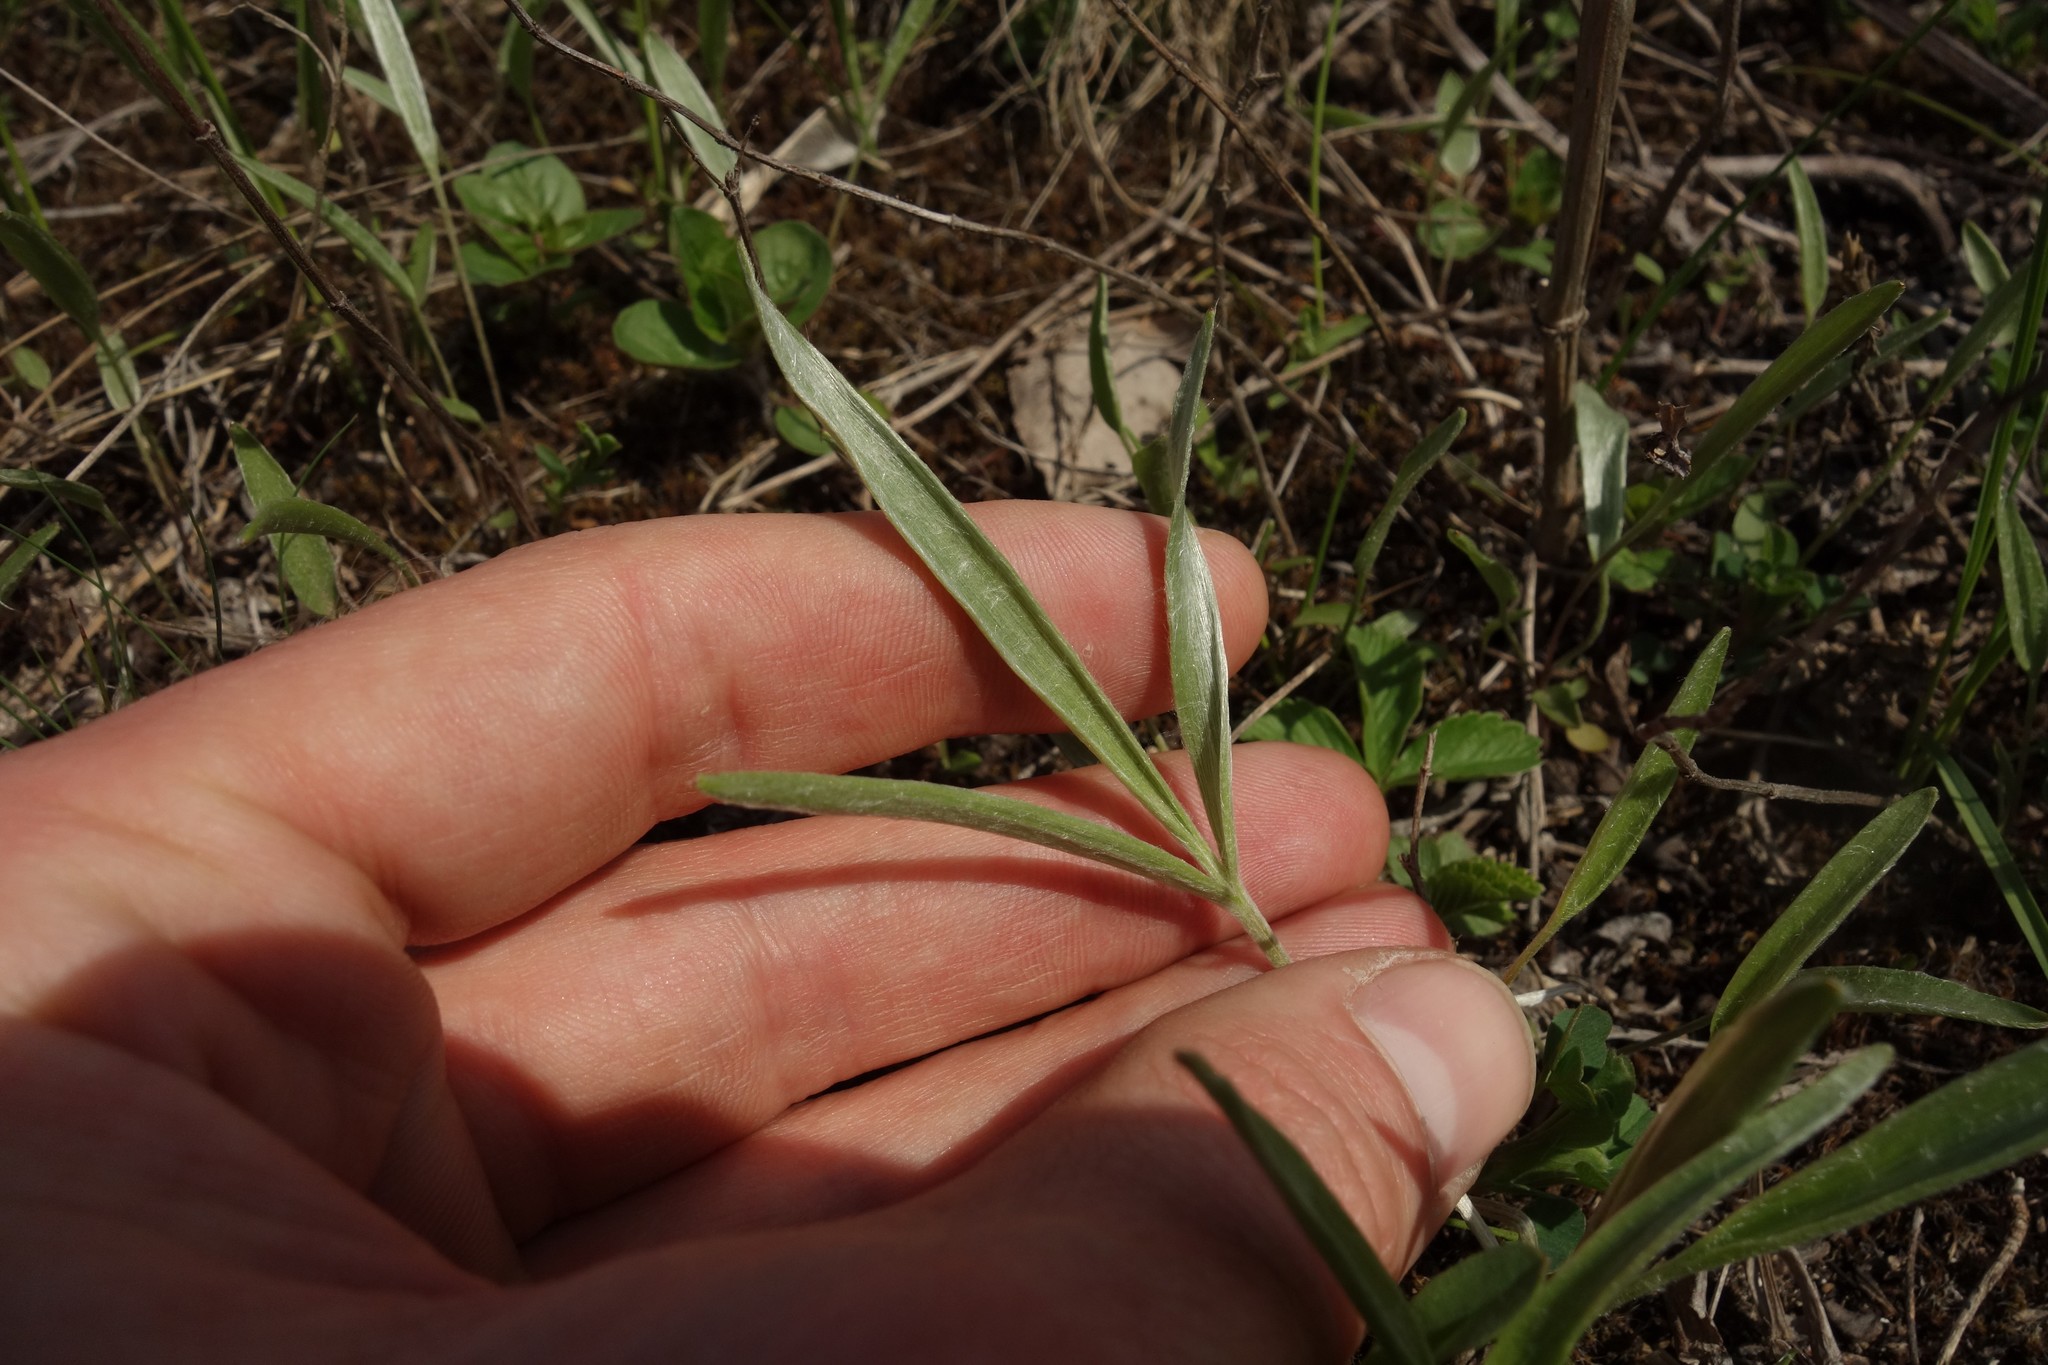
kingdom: Plantae
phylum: Tracheophyta
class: Magnoliopsida
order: Ranunculales
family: Ranunculaceae
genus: Ranunculus
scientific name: Ranunculus illyricus
